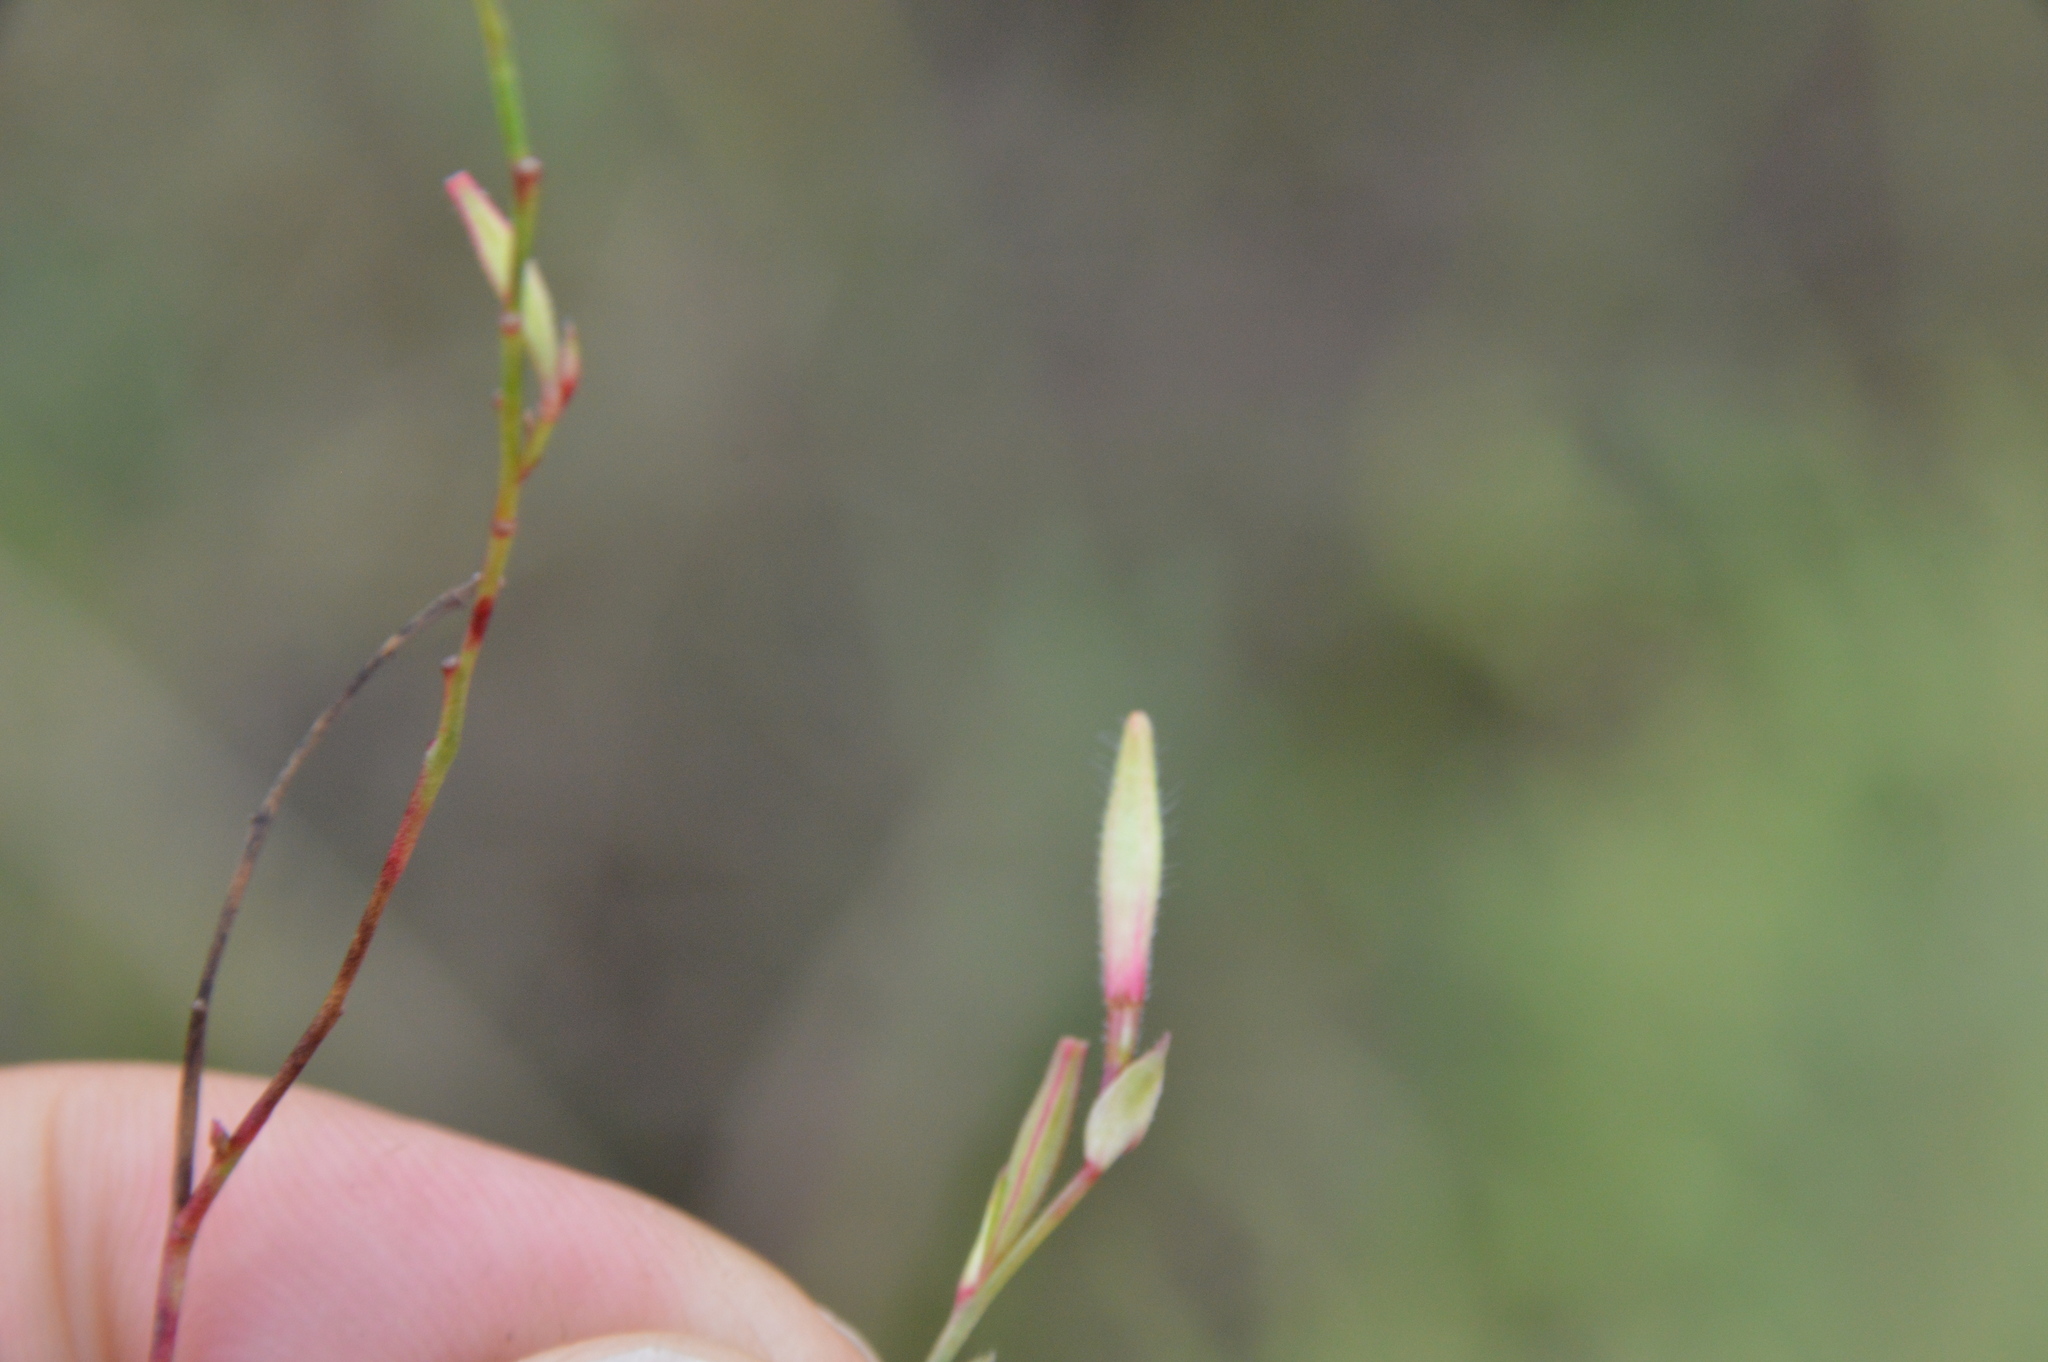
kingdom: Plantae
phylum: Tracheophyta
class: Magnoliopsida
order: Myrtales
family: Onagraceae
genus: Oenothera
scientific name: Oenothera lindheimeri
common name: Lindheimer's beeblossom
